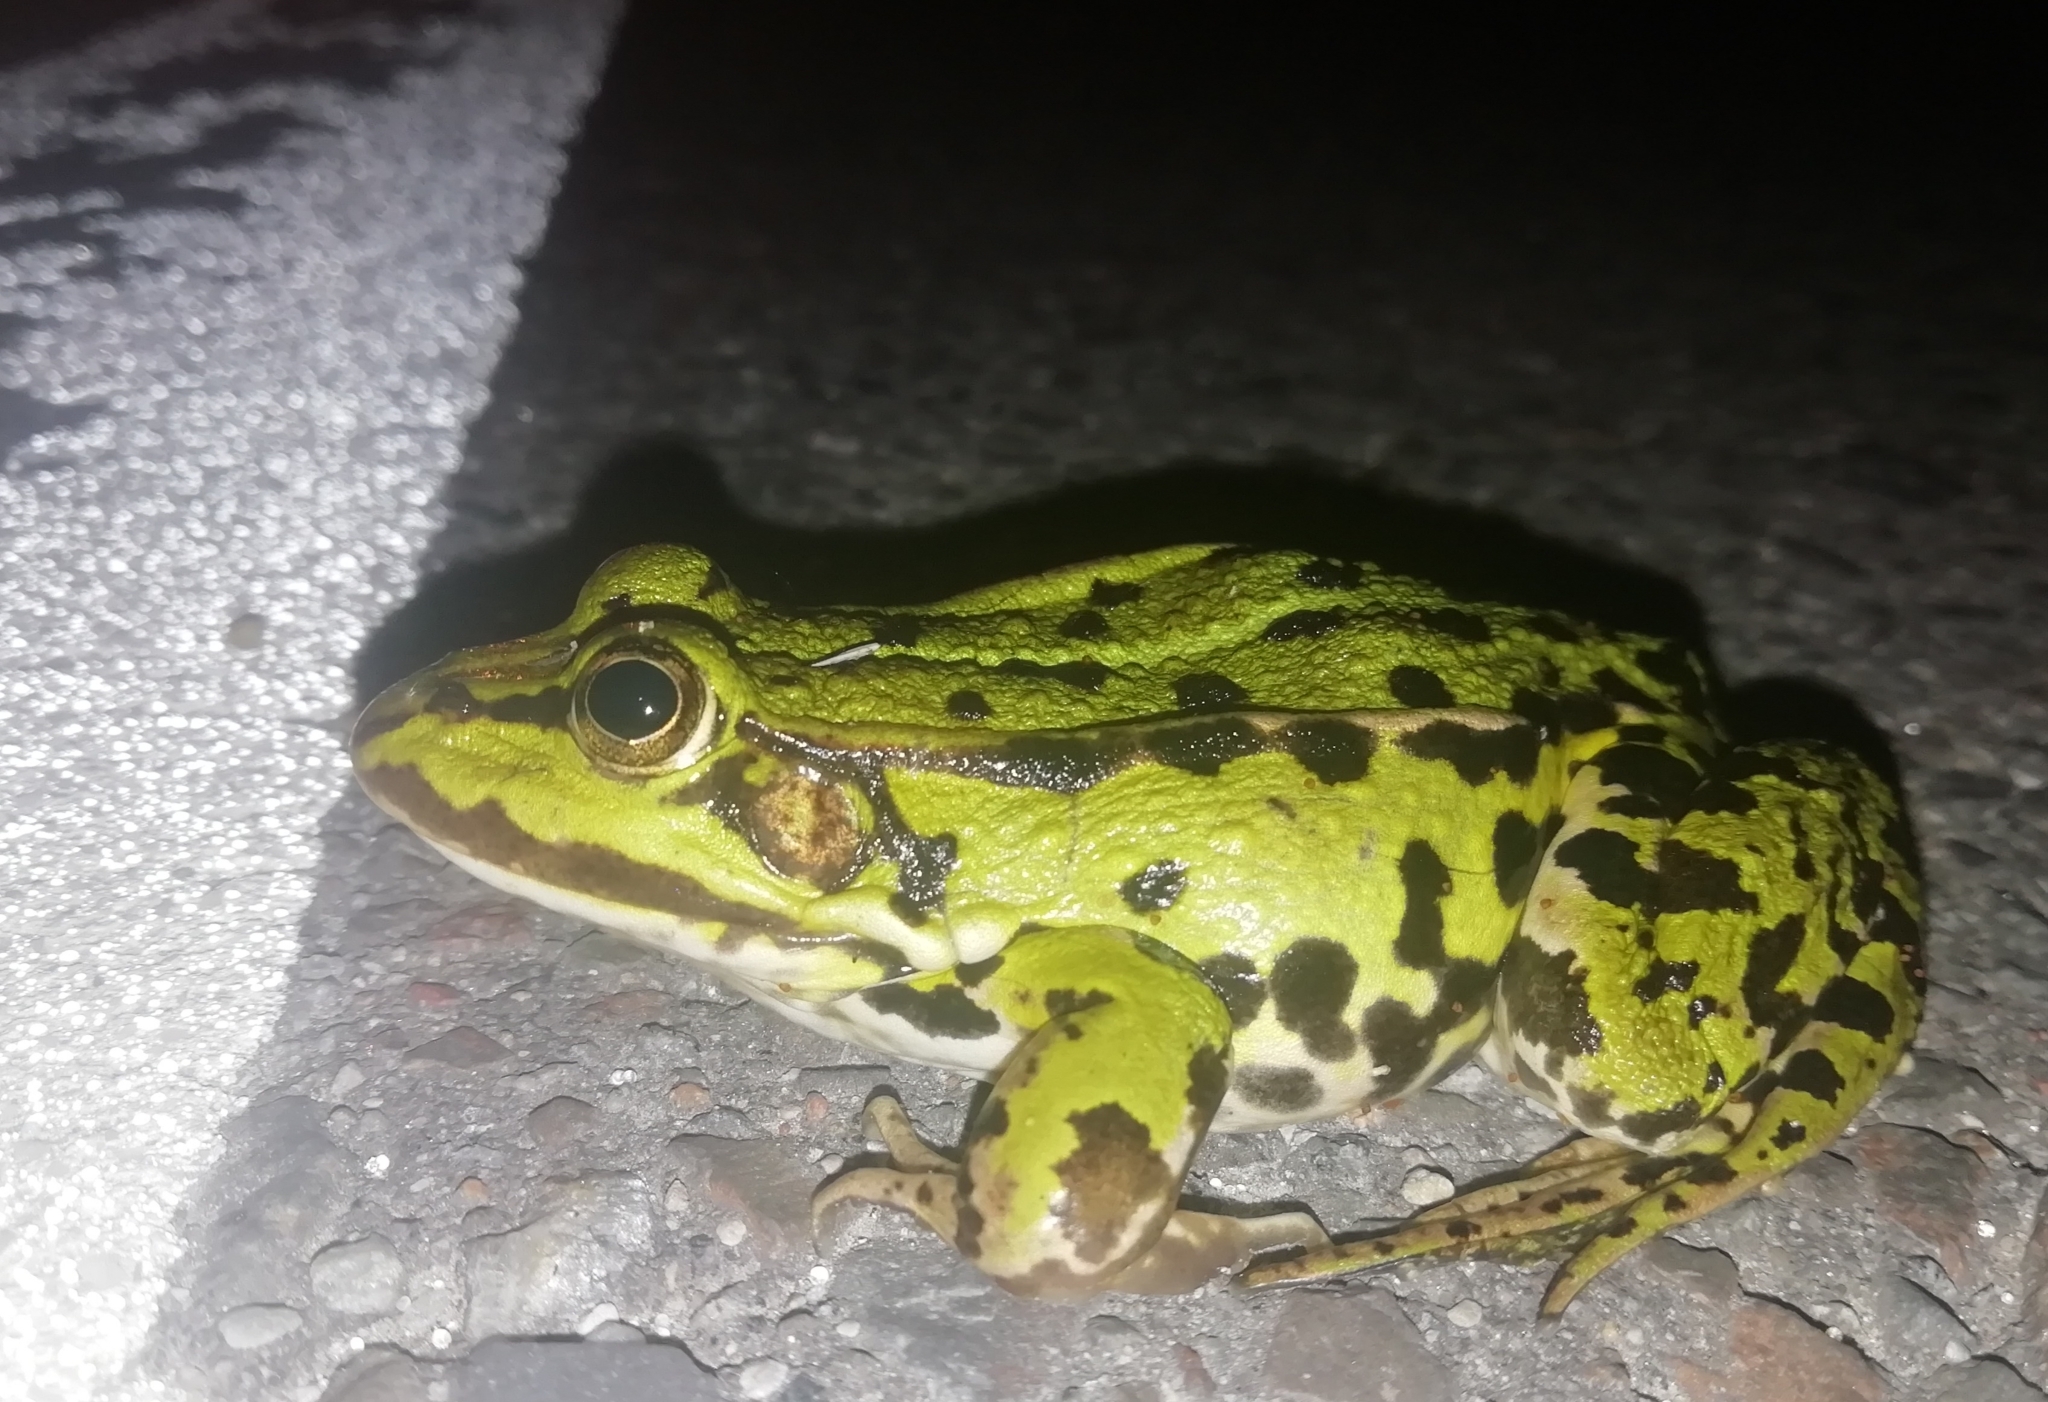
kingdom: Animalia
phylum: Chordata
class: Amphibia
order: Anura
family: Ranidae
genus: Pelophylax
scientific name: Pelophylax
